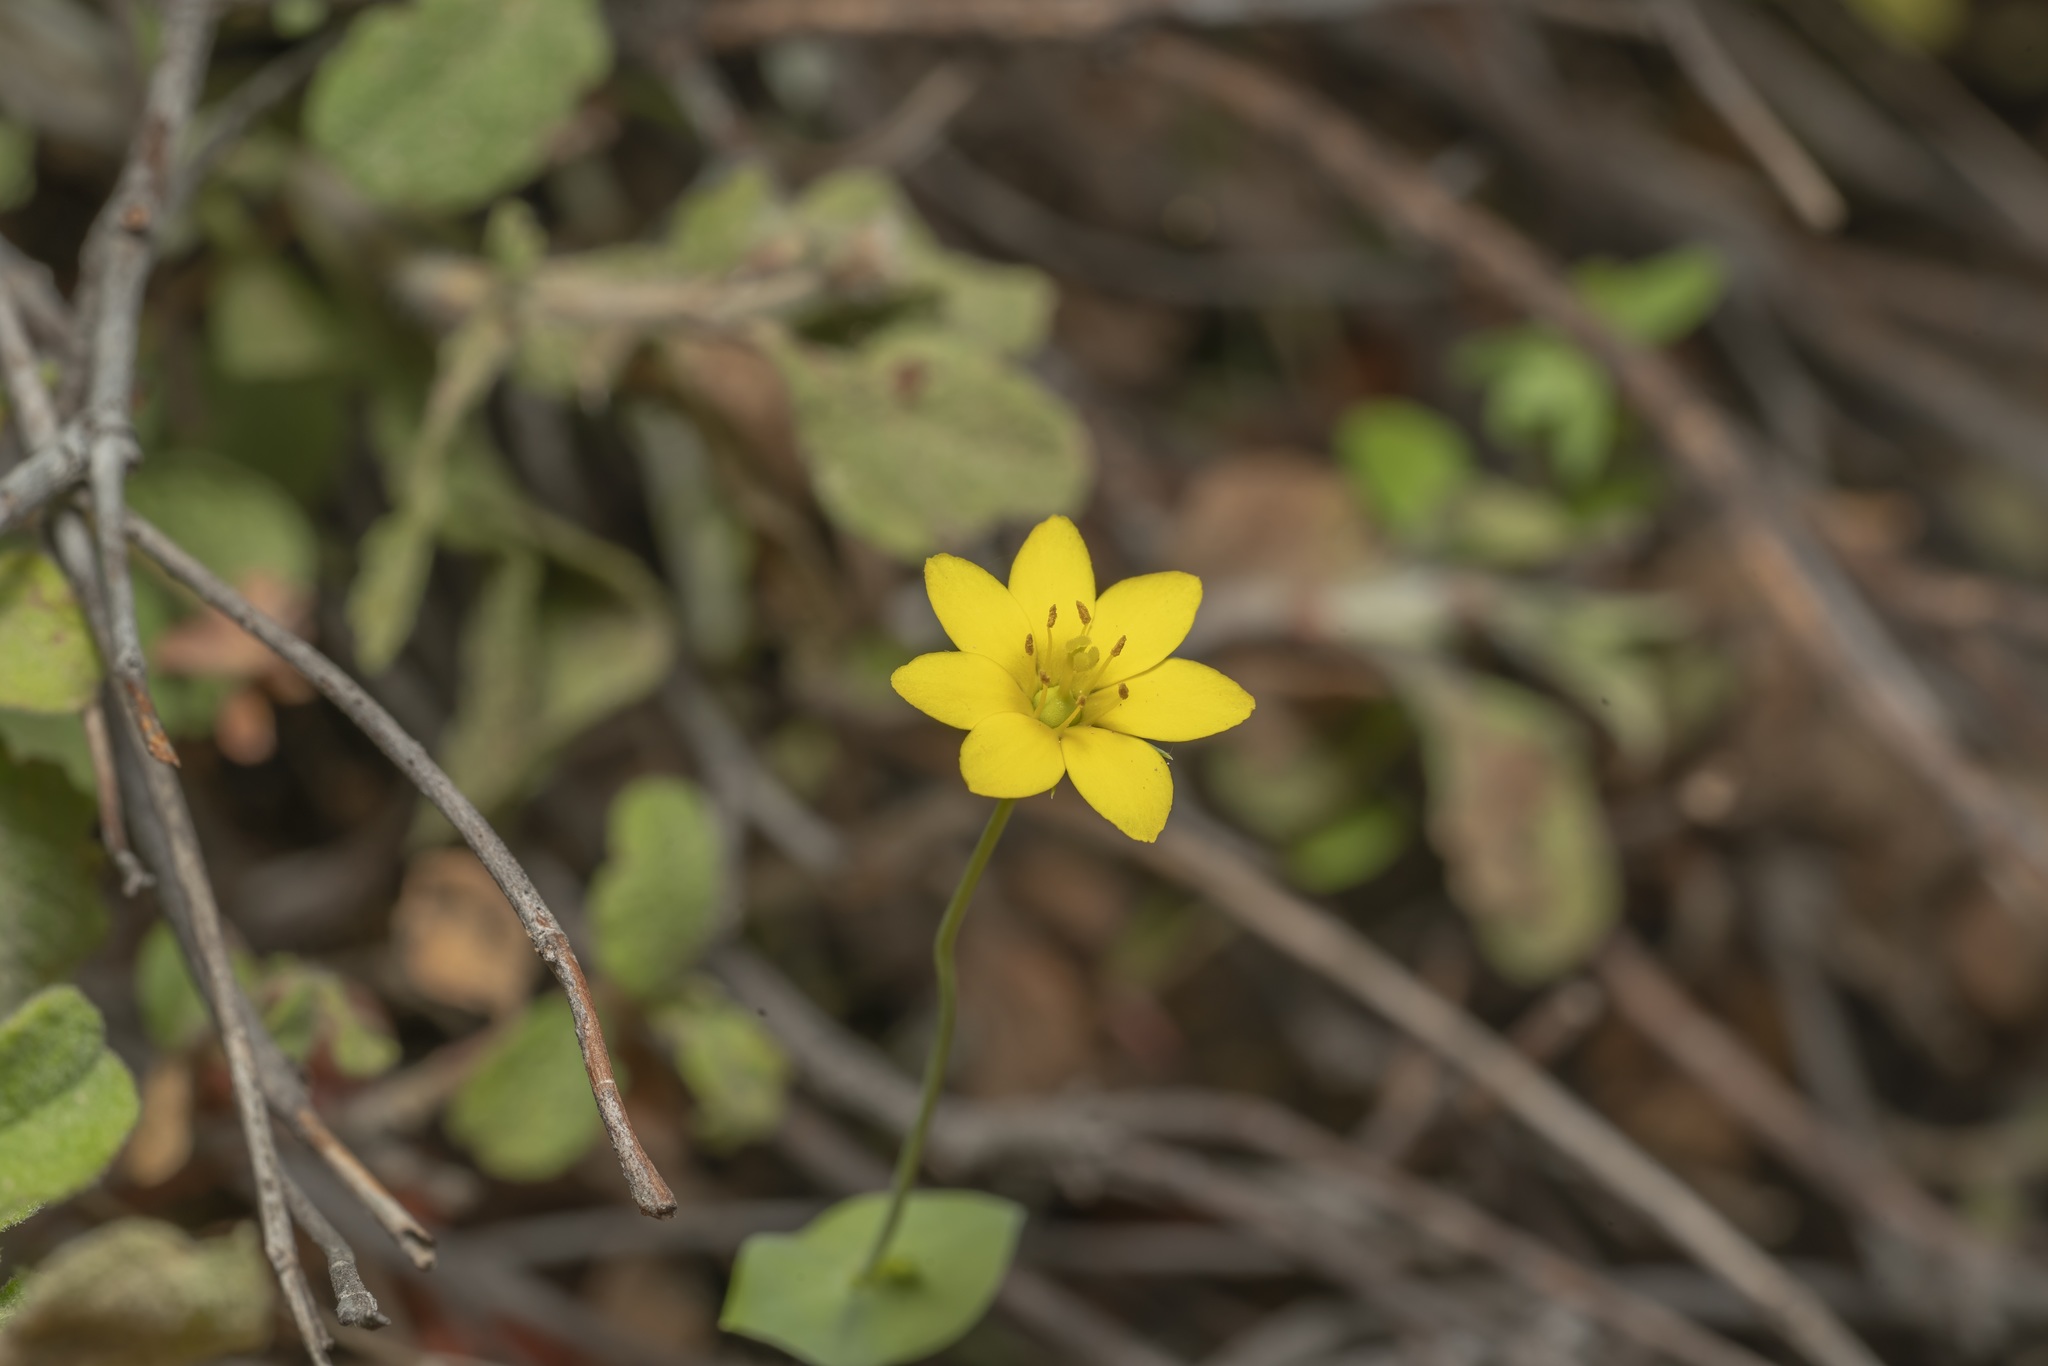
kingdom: Plantae
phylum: Tracheophyta
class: Magnoliopsida
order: Gentianales
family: Gentianaceae
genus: Blackstonia
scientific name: Blackstonia perfoliata
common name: Yellow-wort
